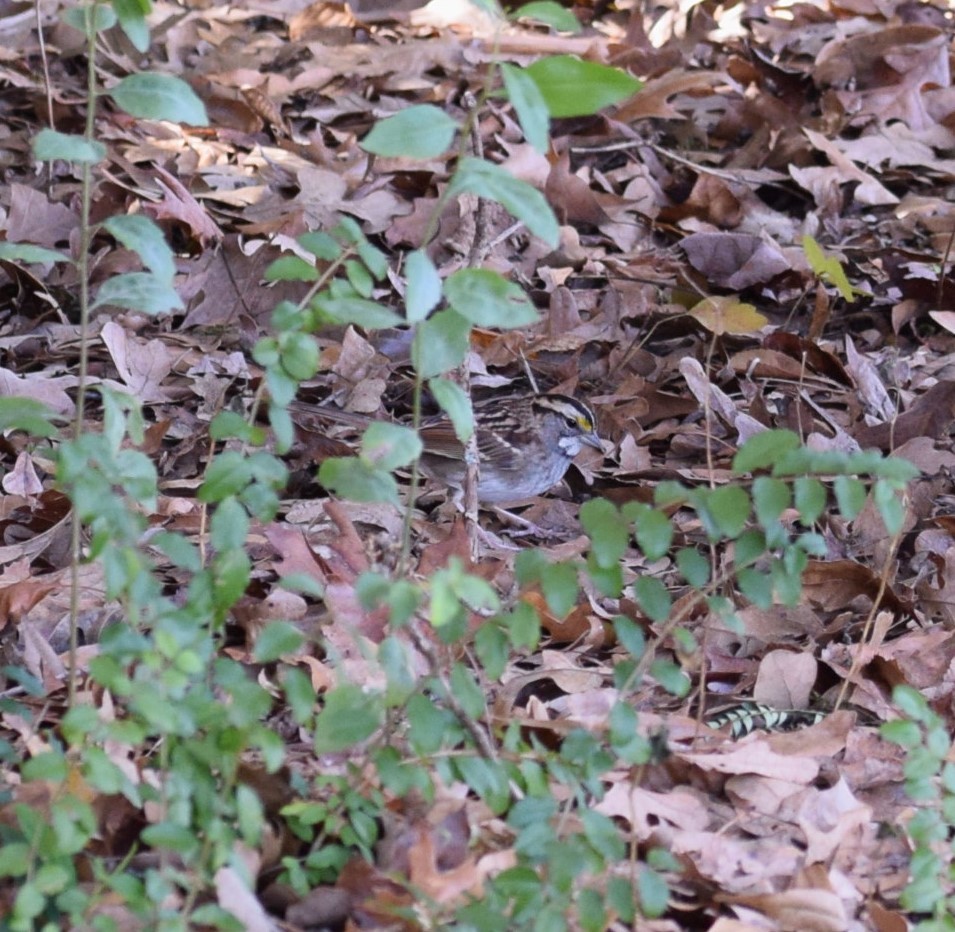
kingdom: Animalia
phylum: Chordata
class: Aves
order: Passeriformes
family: Passerellidae
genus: Zonotrichia
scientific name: Zonotrichia albicollis
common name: White-throated sparrow
